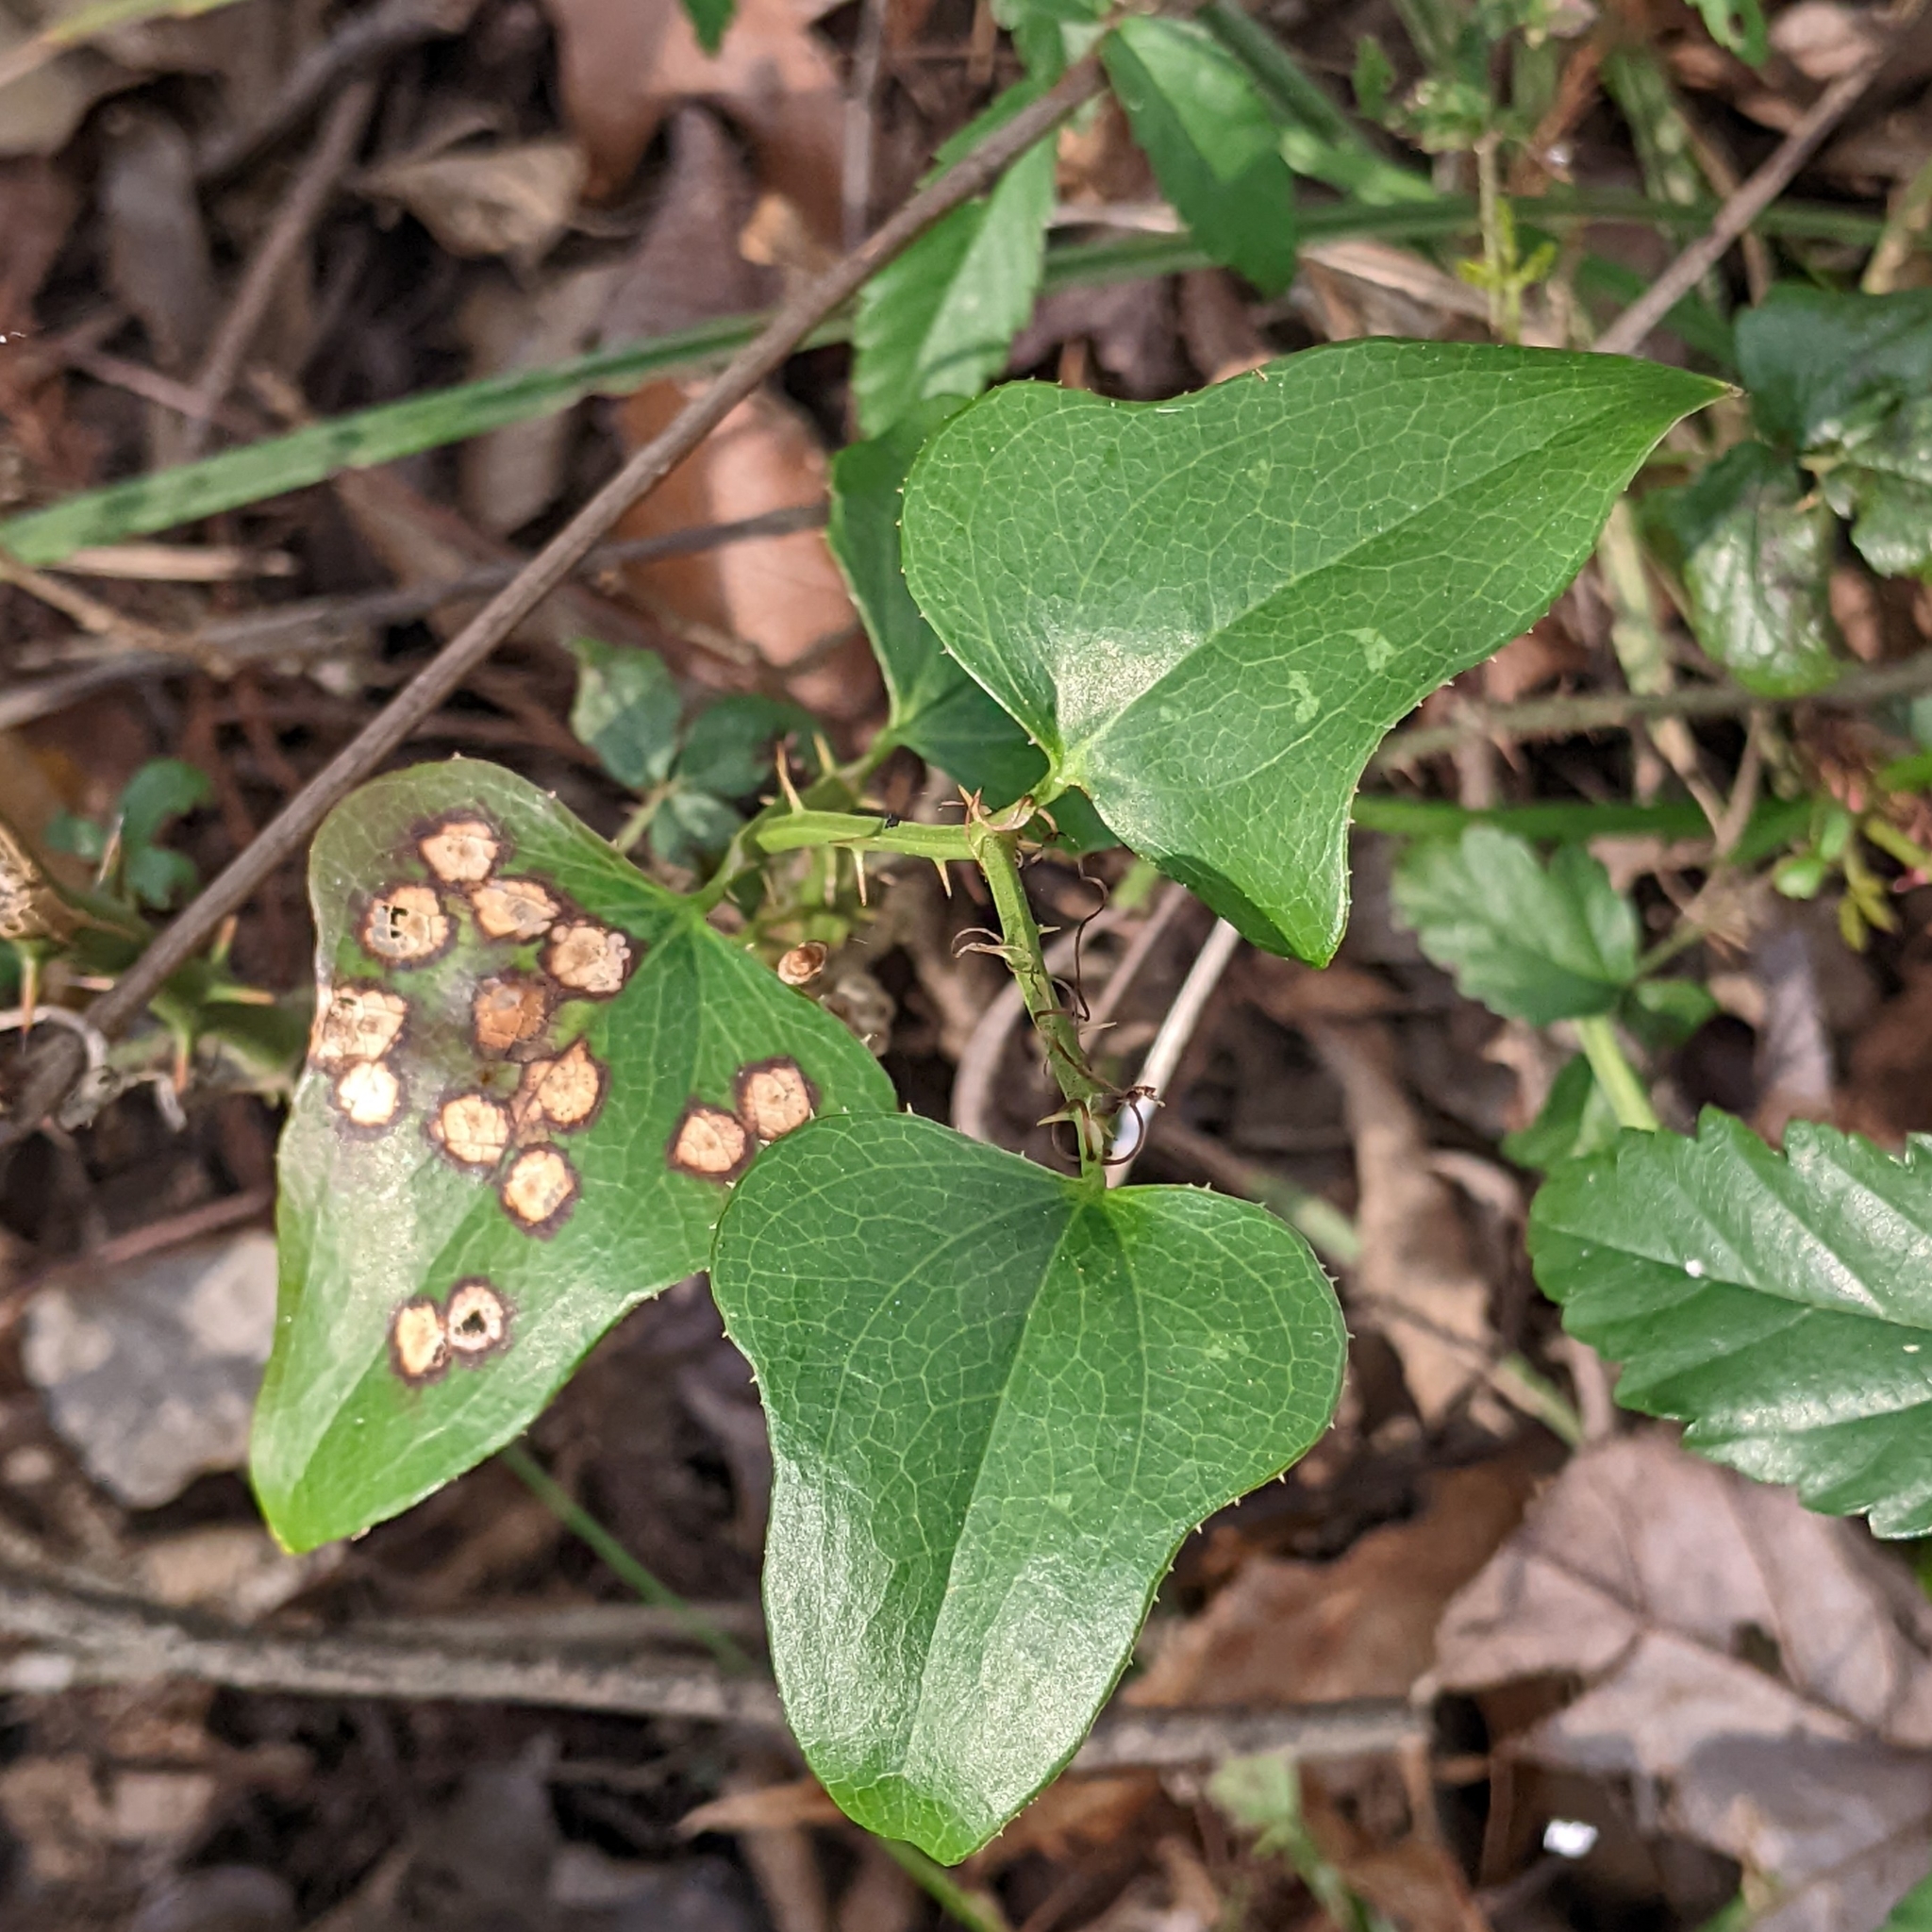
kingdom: Plantae
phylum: Tracheophyta
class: Liliopsida
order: Liliales
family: Smilacaceae
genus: Smilax
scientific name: Smilax bona-nox
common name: Catbrier
